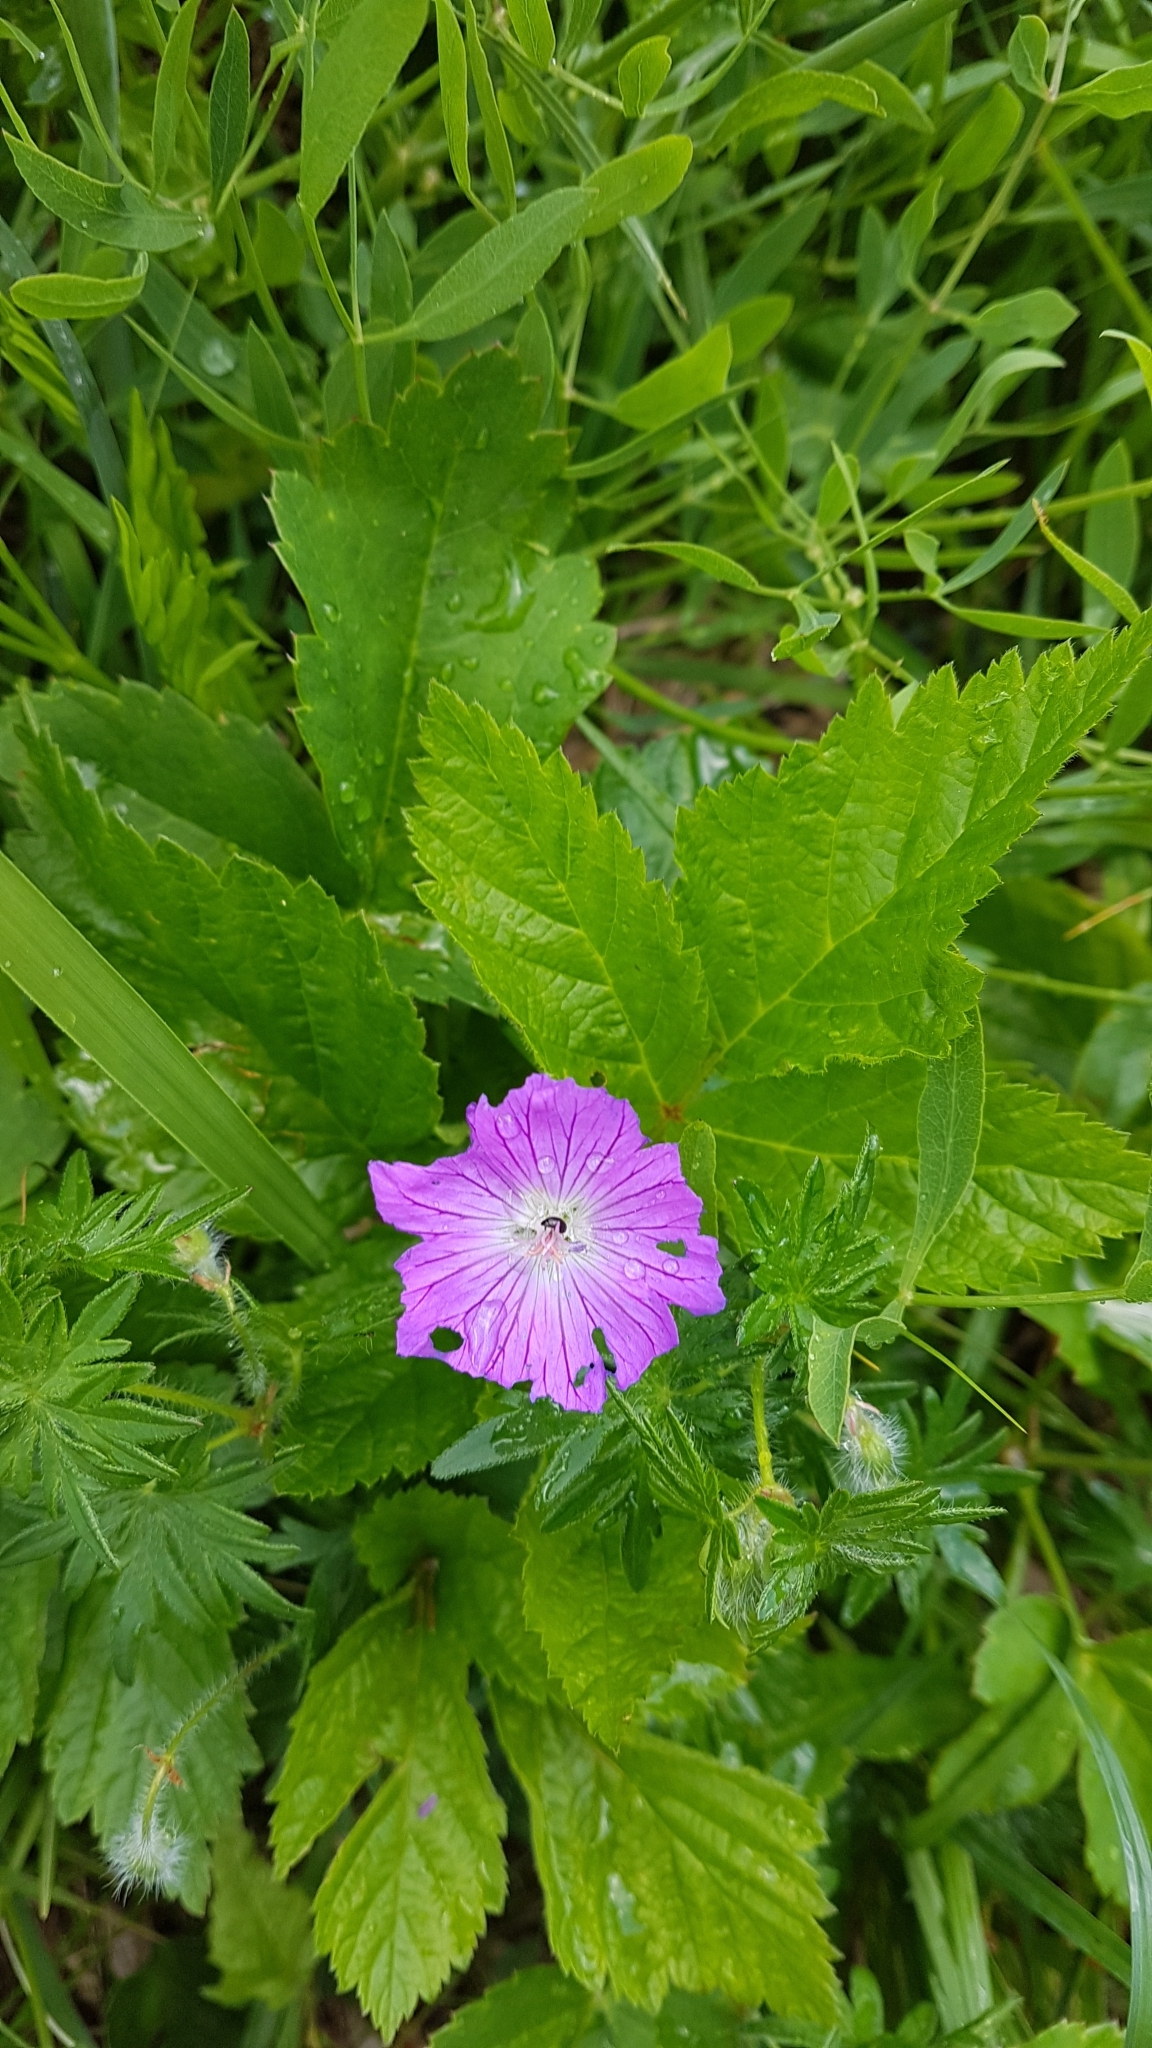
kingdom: Plantae
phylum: Tracheophyta
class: Magnoliopsida
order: Geraniales
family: Geraniaceae
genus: Geranium
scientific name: Geranium sanguineum
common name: Bloody crane's-bill
